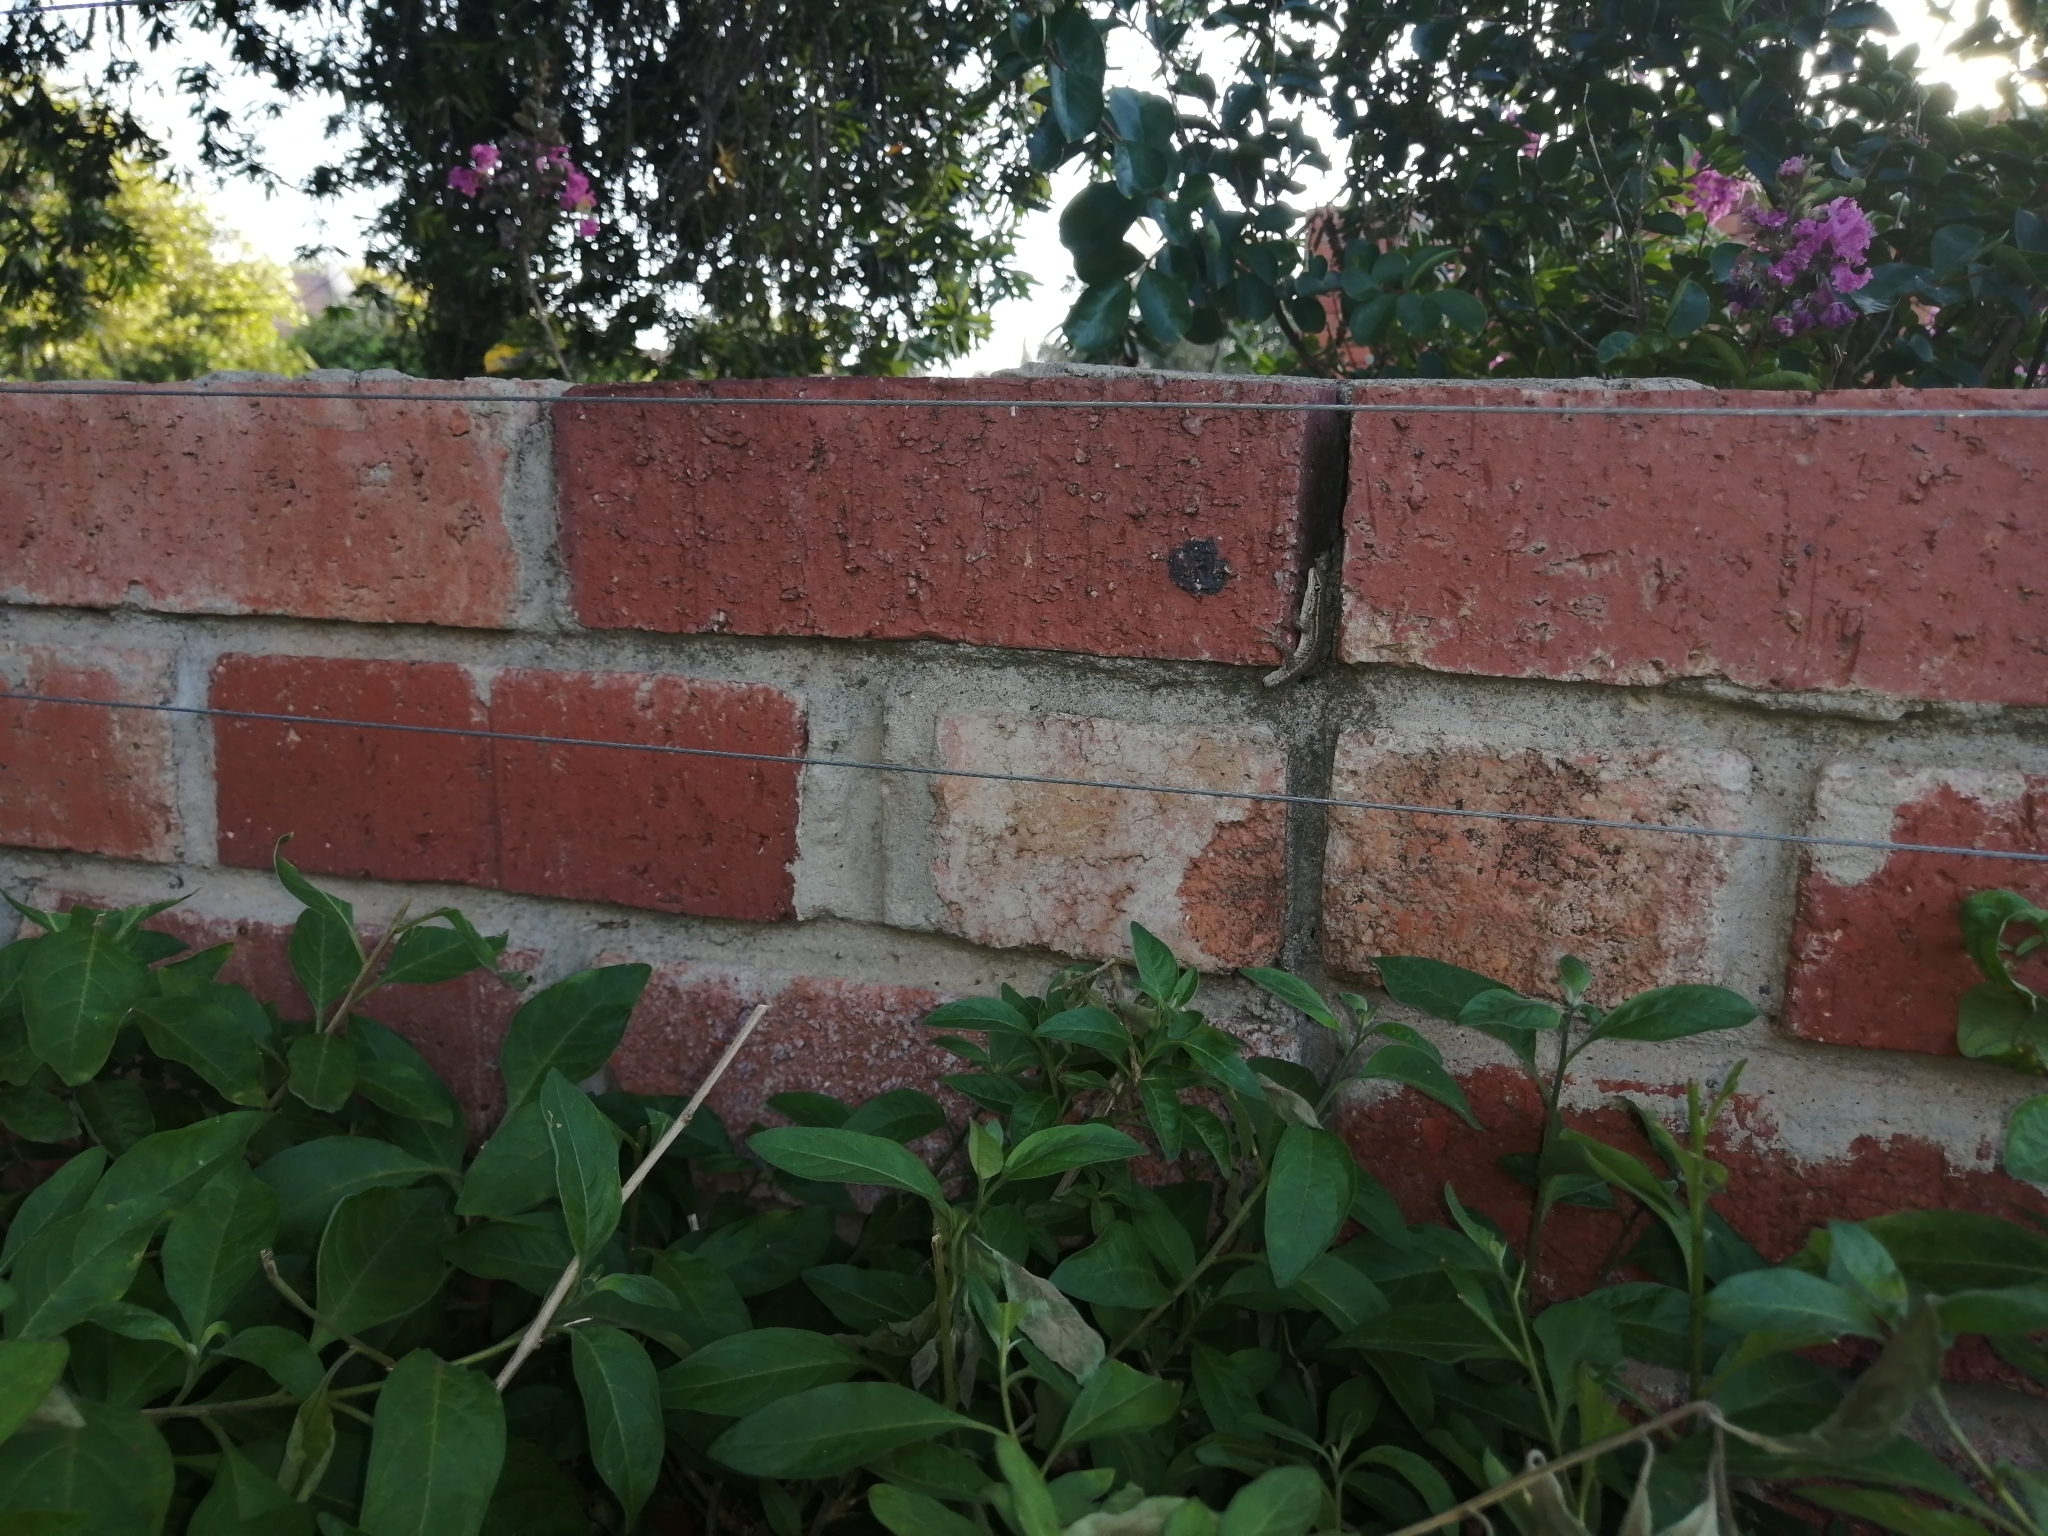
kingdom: Animalia
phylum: Chordata
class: Squamata
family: Gekkonidae
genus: Lygodactylus
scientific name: Lygodactylus capensis
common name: Cape dwarf gecko
